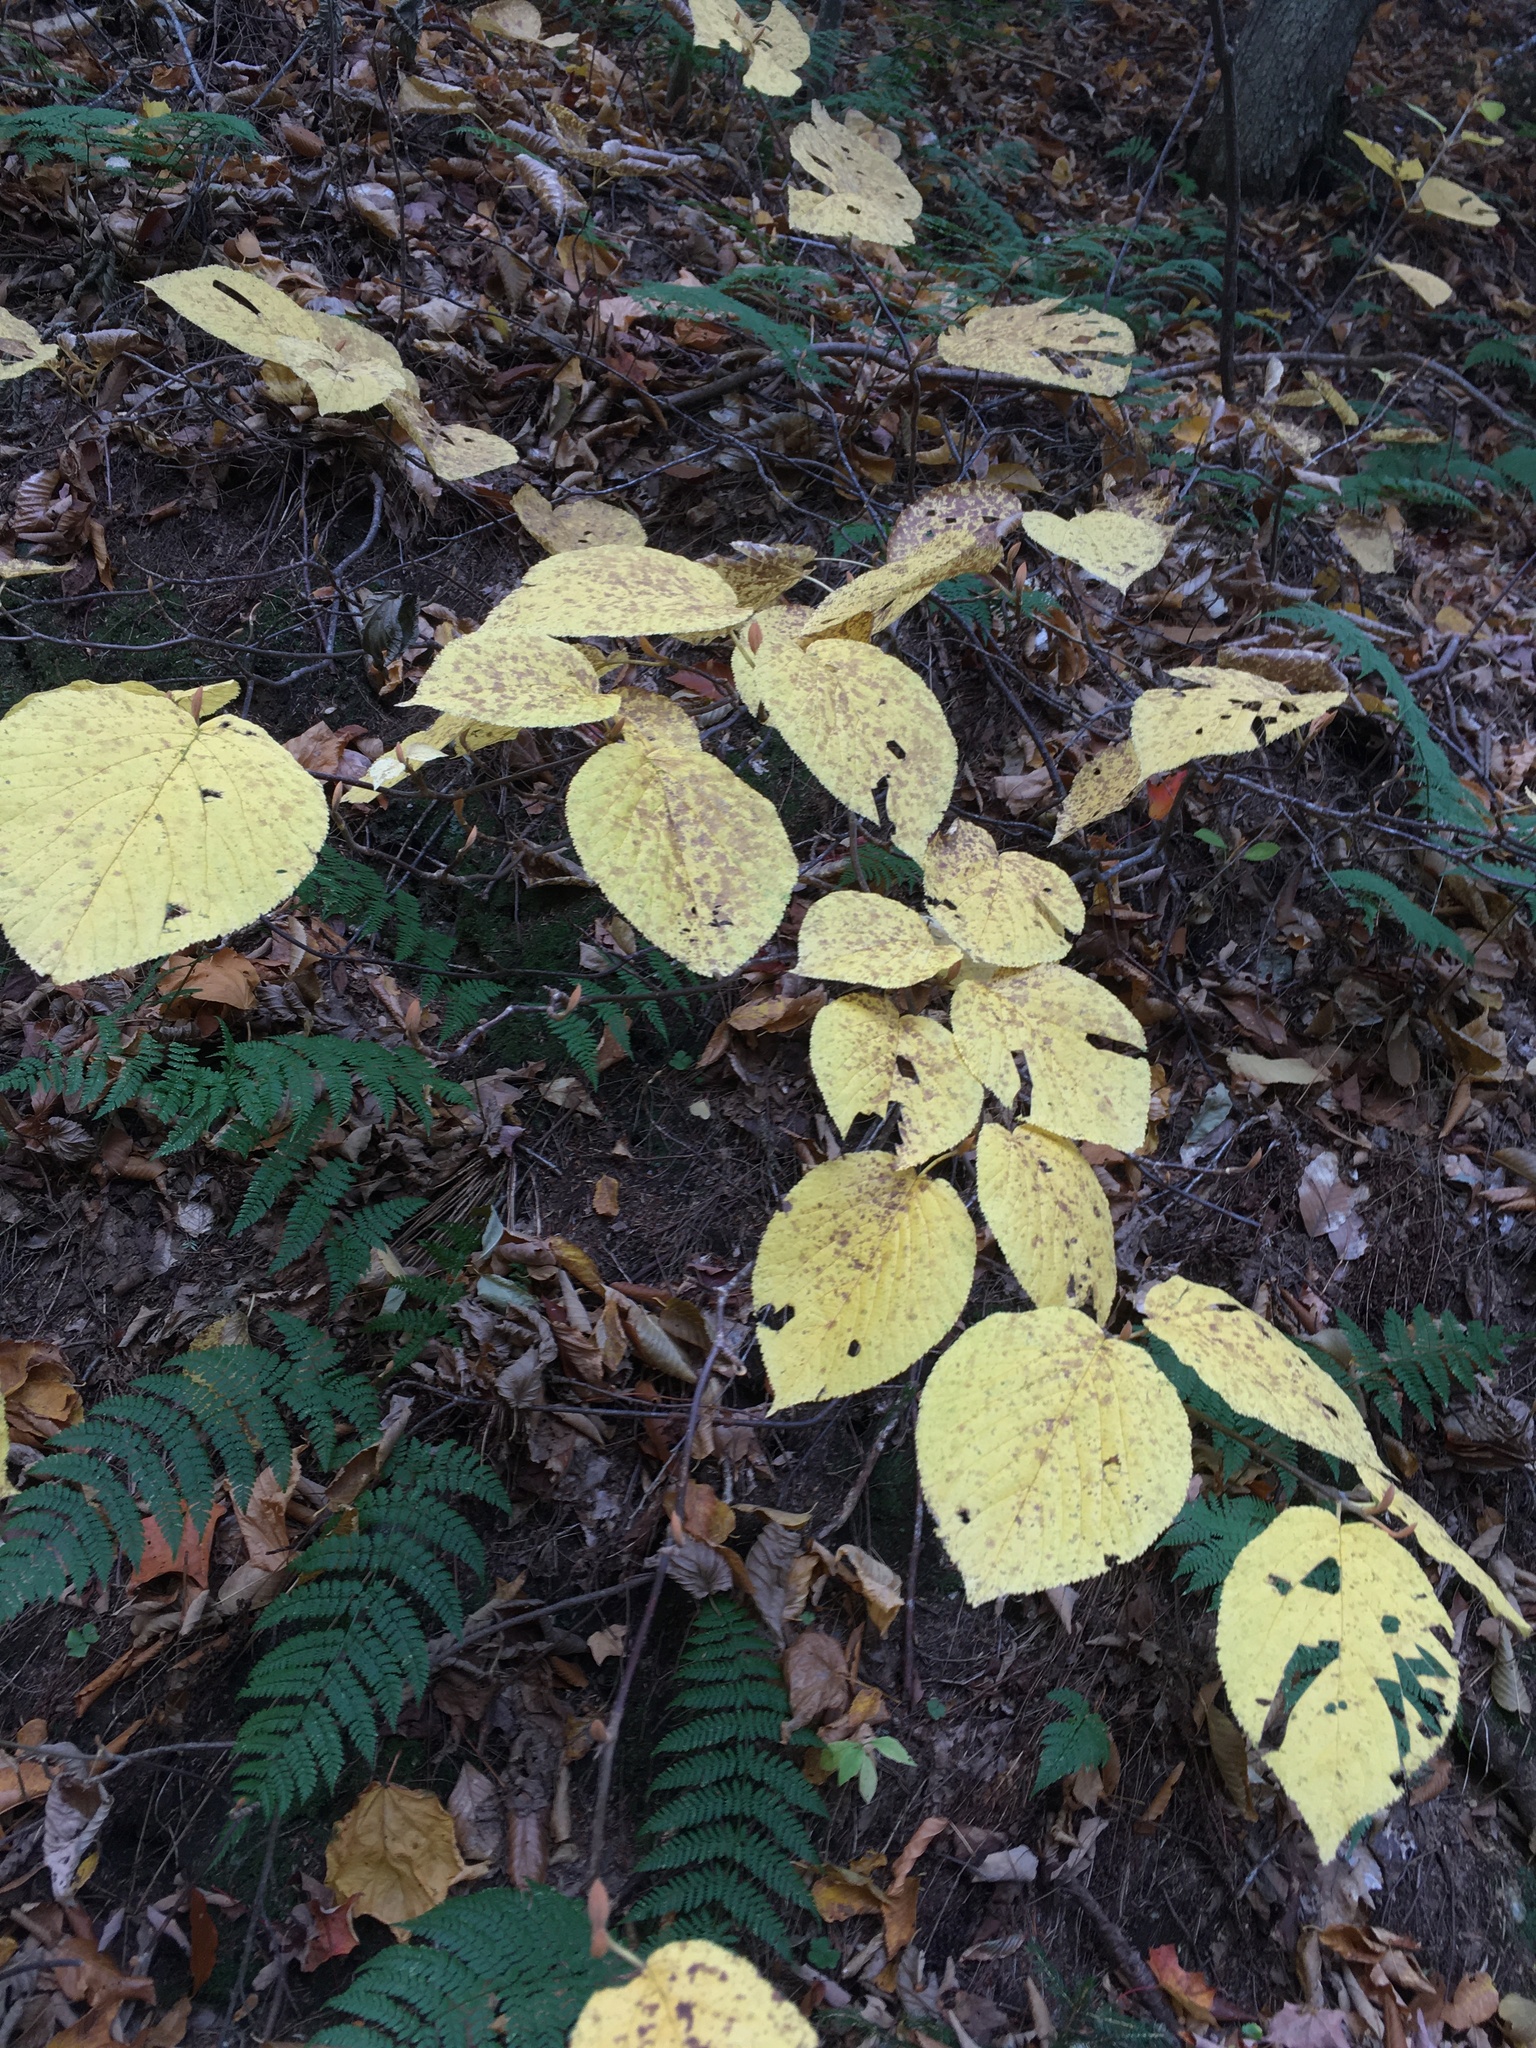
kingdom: Plantae
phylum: Tracheophyta
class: Magnoliopsida
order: Dipsacales
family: Viburnaceae
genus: Viburnum
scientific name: Viburnum lantanoides
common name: Hobblebush
